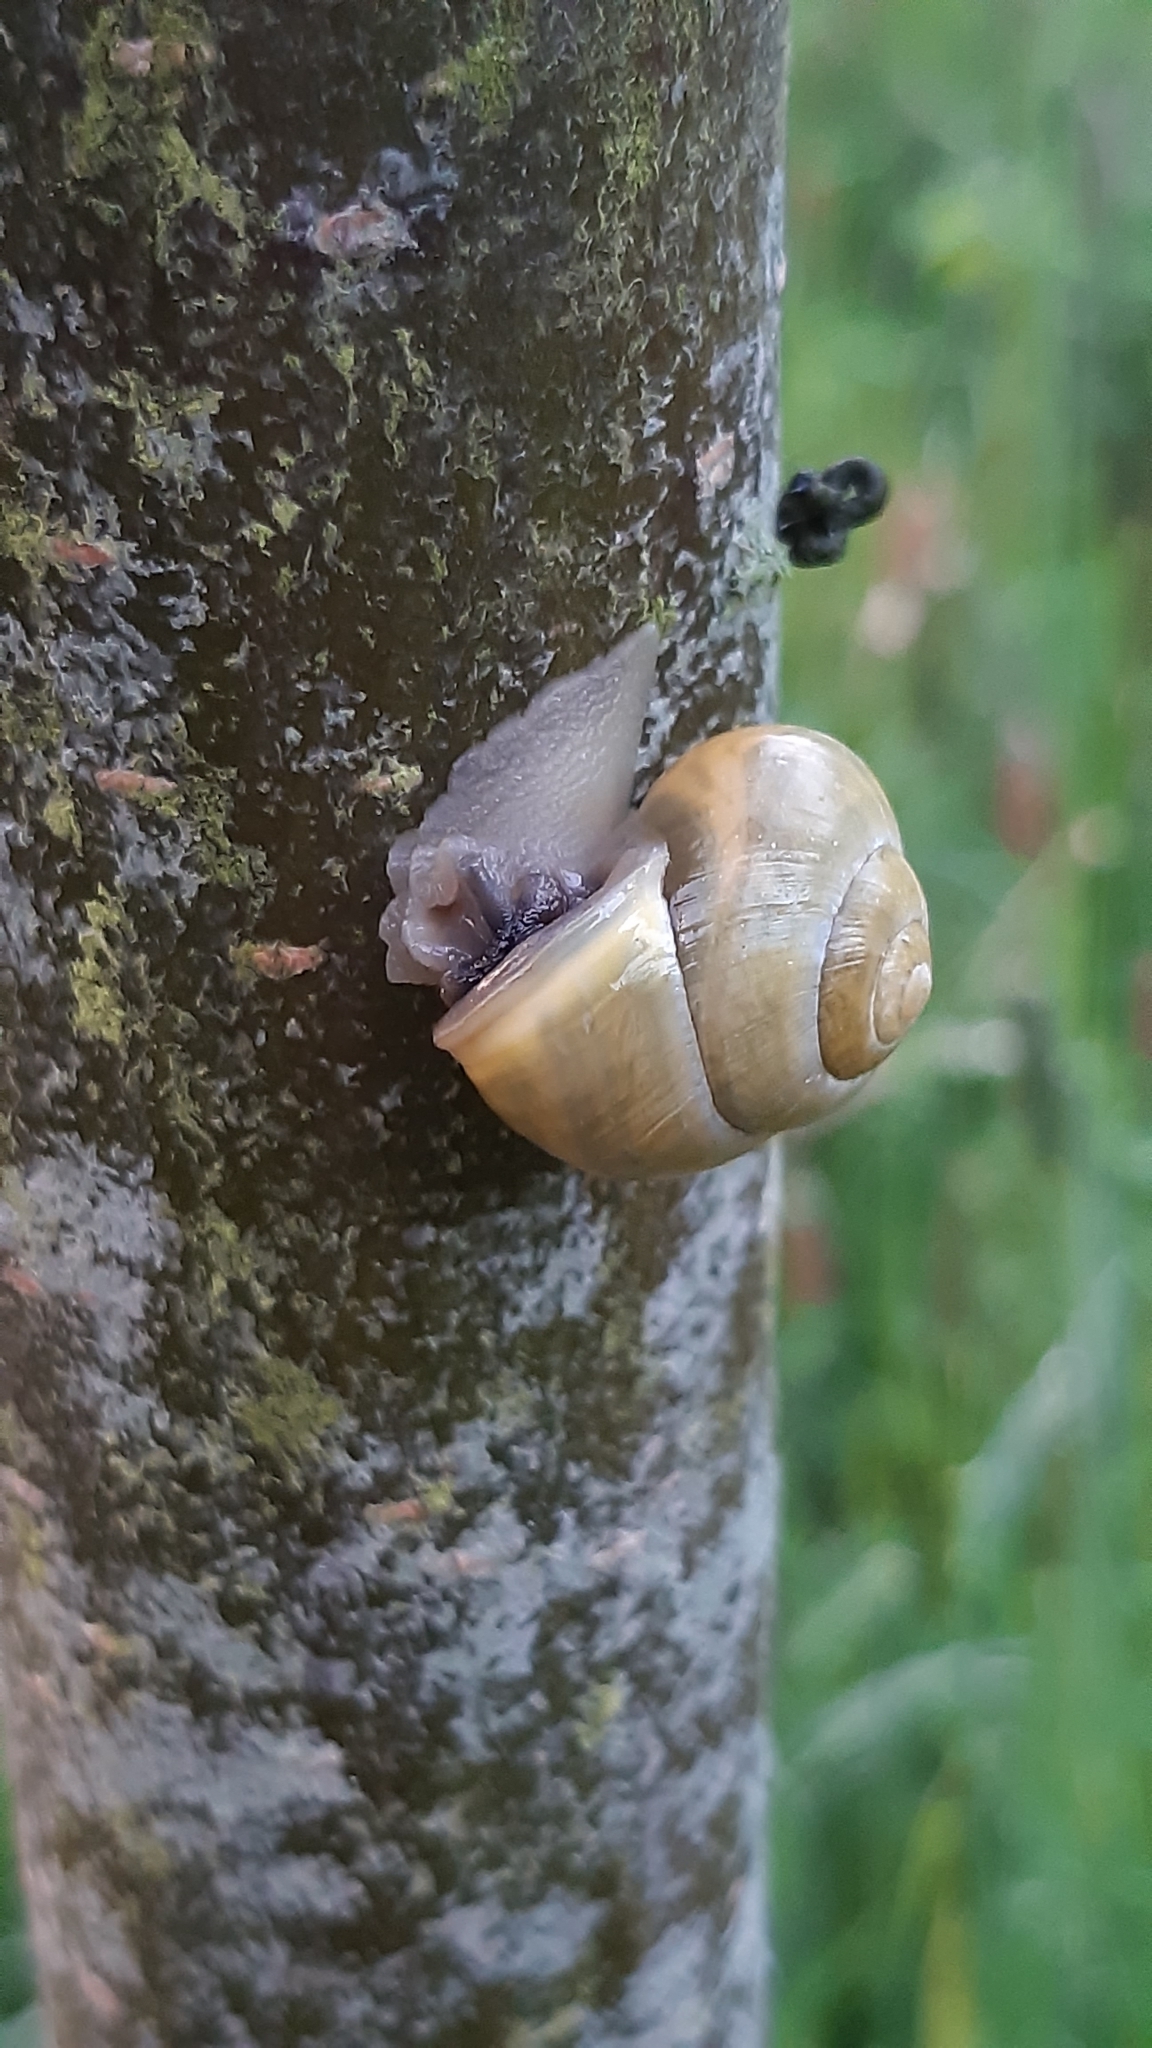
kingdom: Animalia
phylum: Mollusca
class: Gastropoda
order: Stylommatophora
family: Helicidae
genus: Cepaea
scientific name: Cepaea hortensis
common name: White-lip gardensnail
